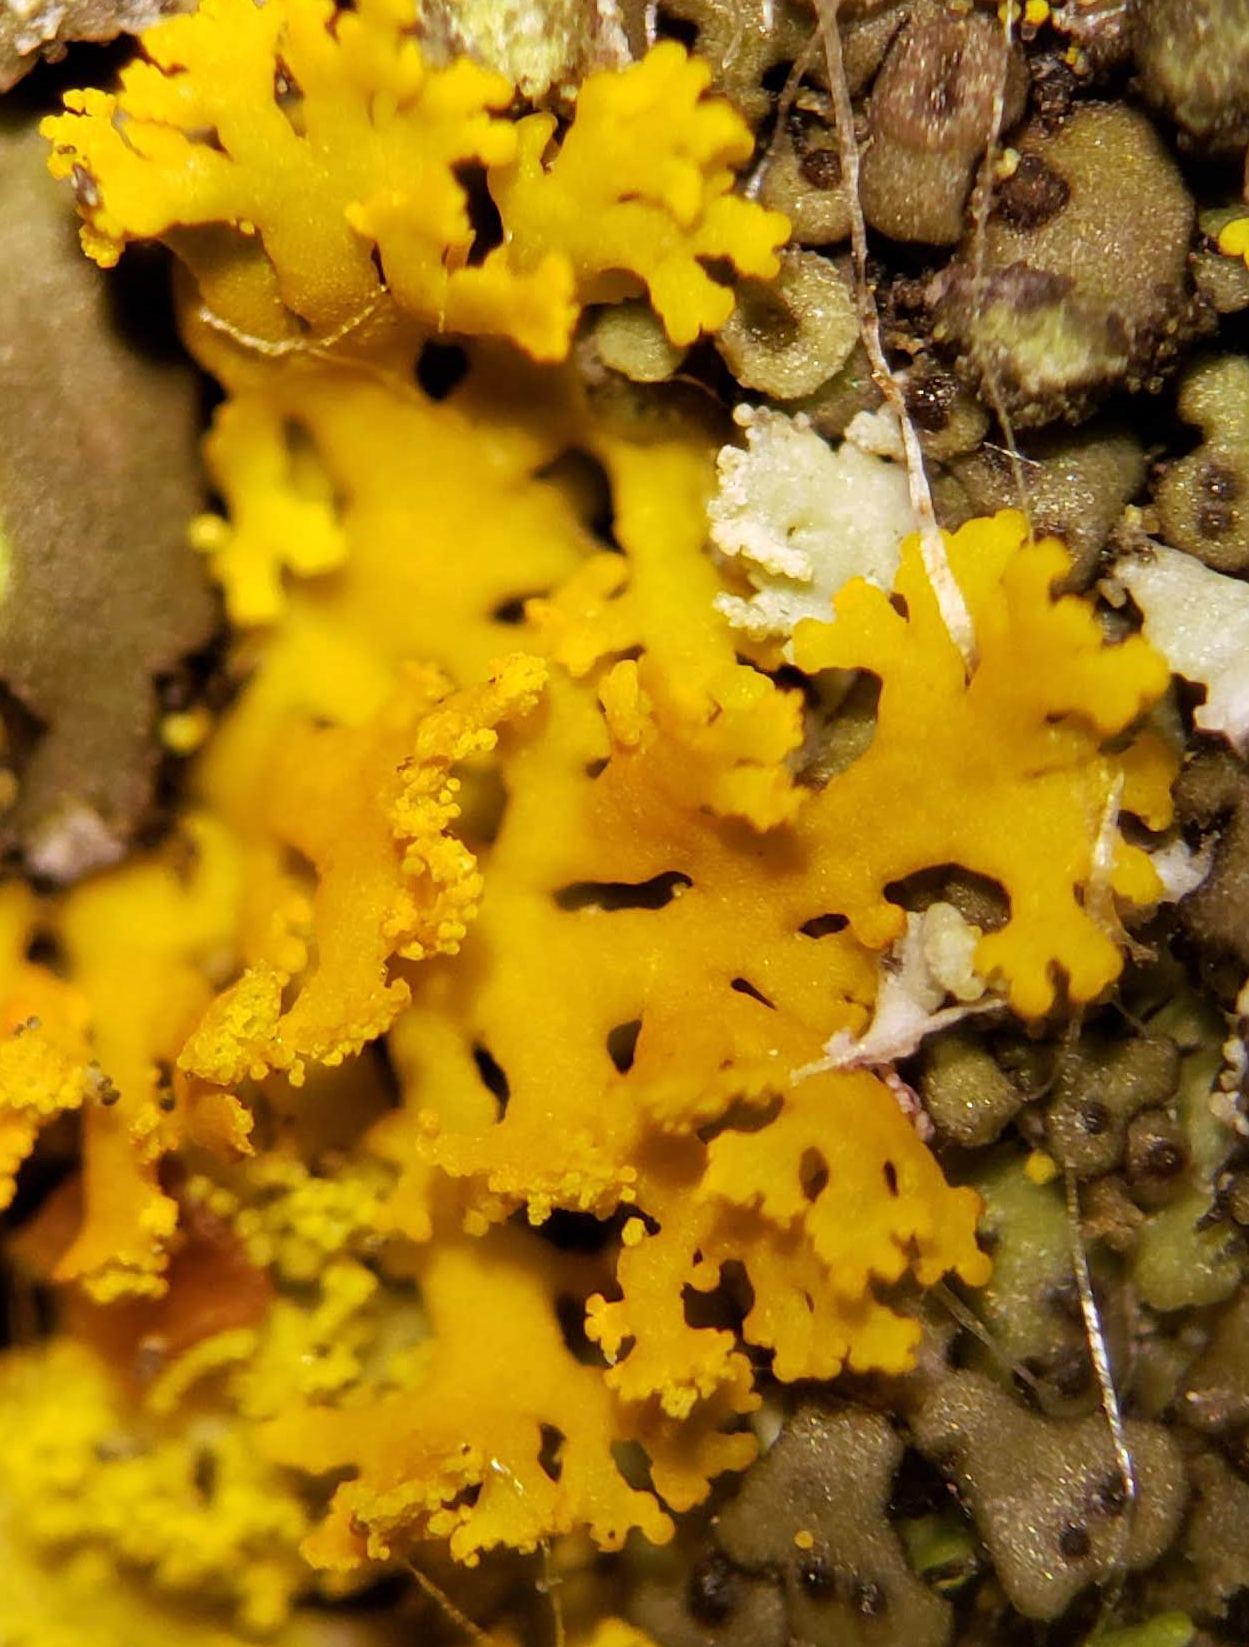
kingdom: Fungi
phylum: Ascomycota
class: Lecanoromycetes
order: Teloschistales
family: Teloschistaceae
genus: Gallowayella
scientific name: Gallowayella weberi
